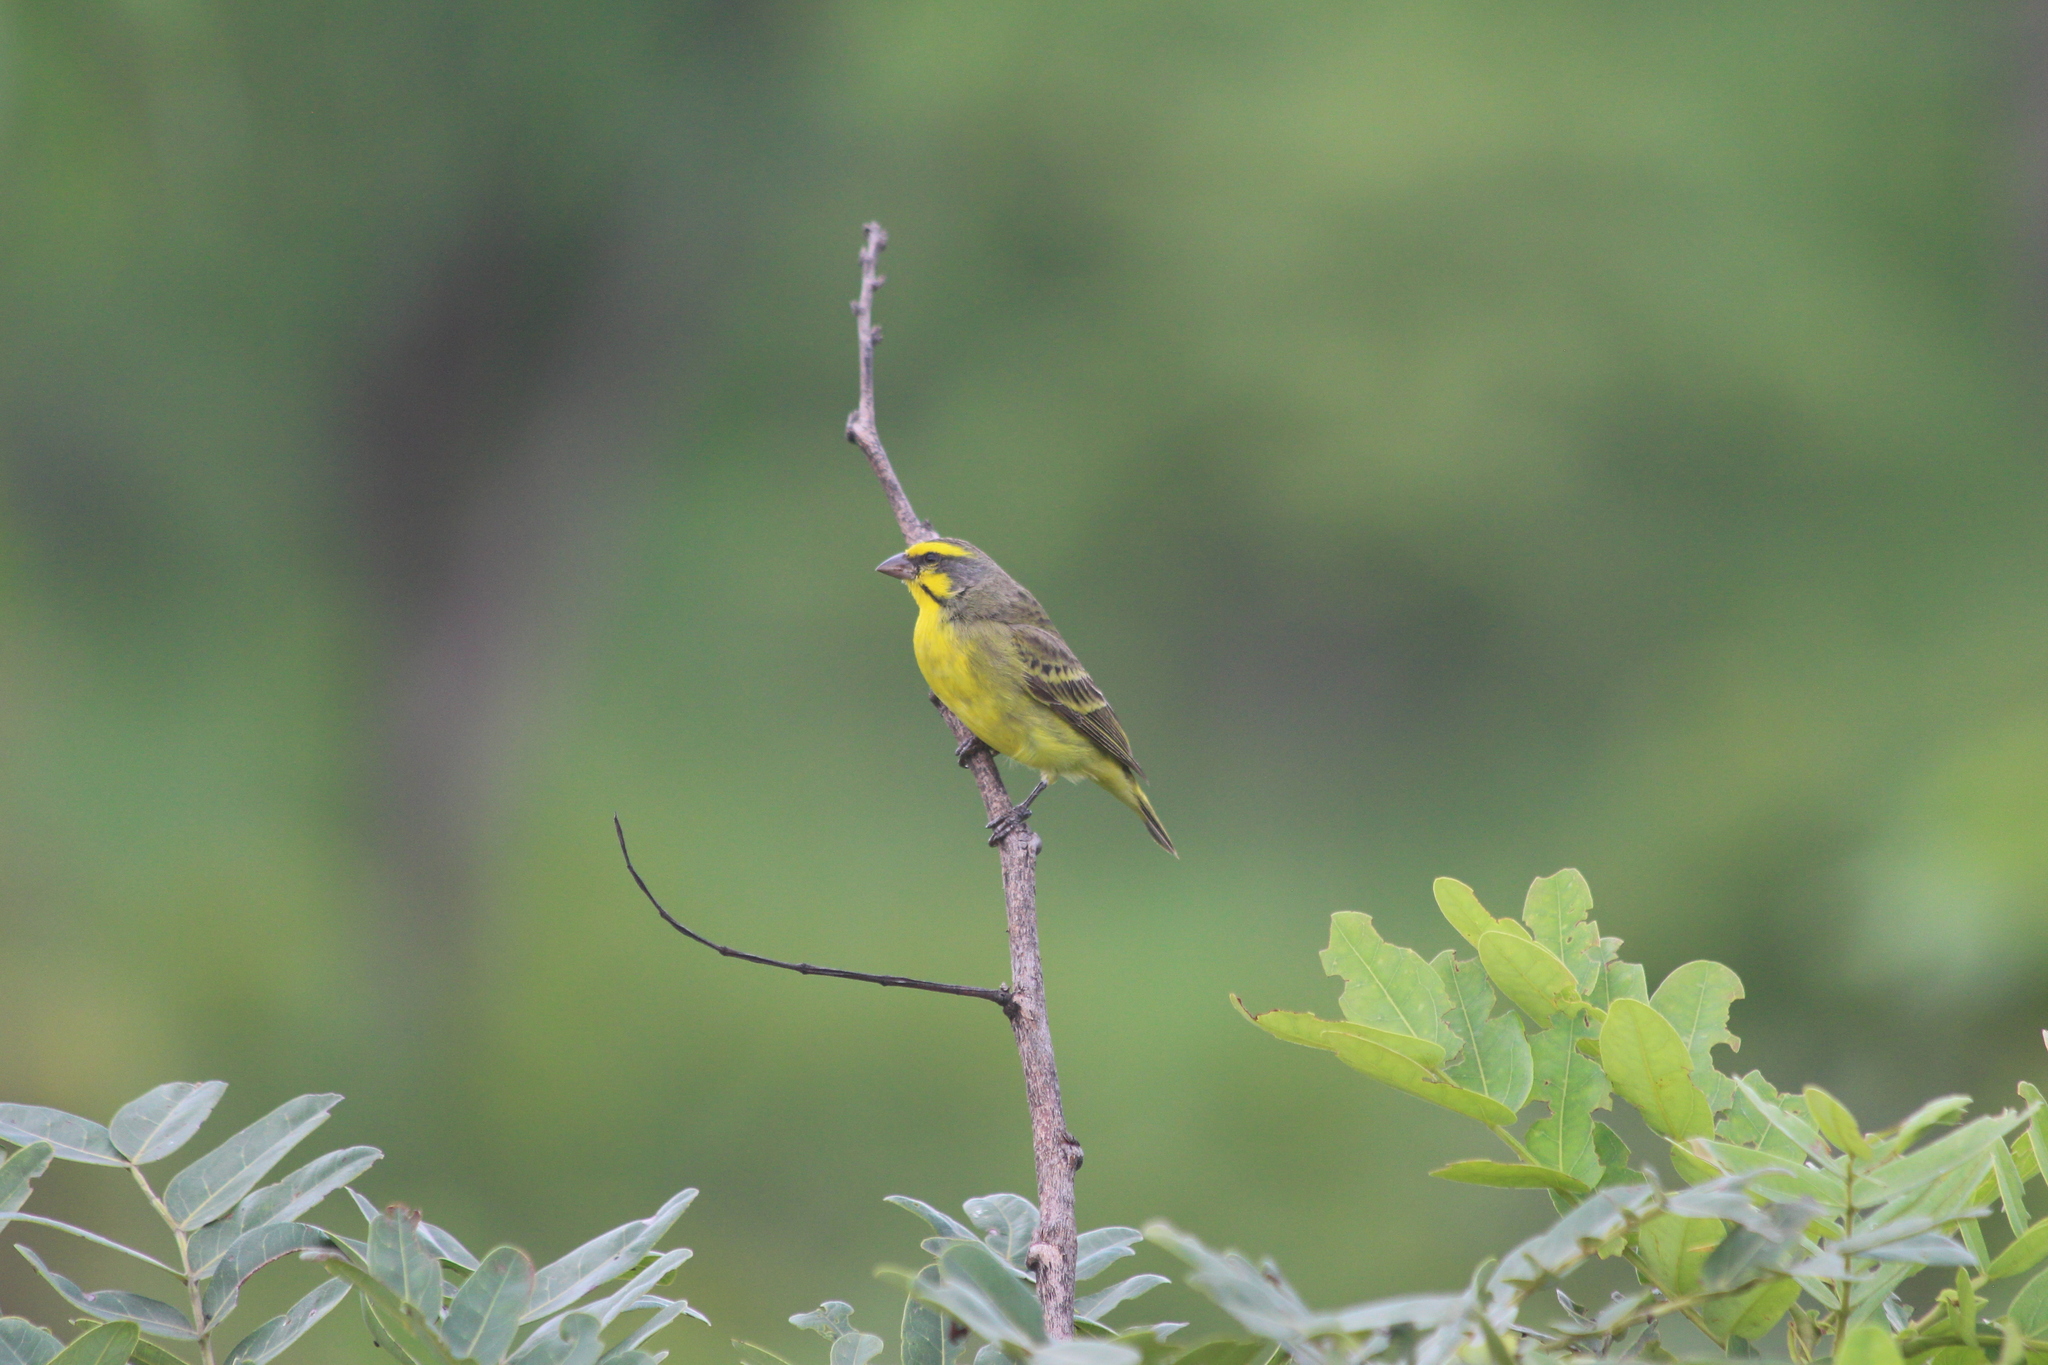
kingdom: Animalia
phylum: Chordata
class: Aves
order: Passeriformes
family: Fringillidae
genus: Crithagra
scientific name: Crithagra mozambica
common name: Yellow-fronted canary
